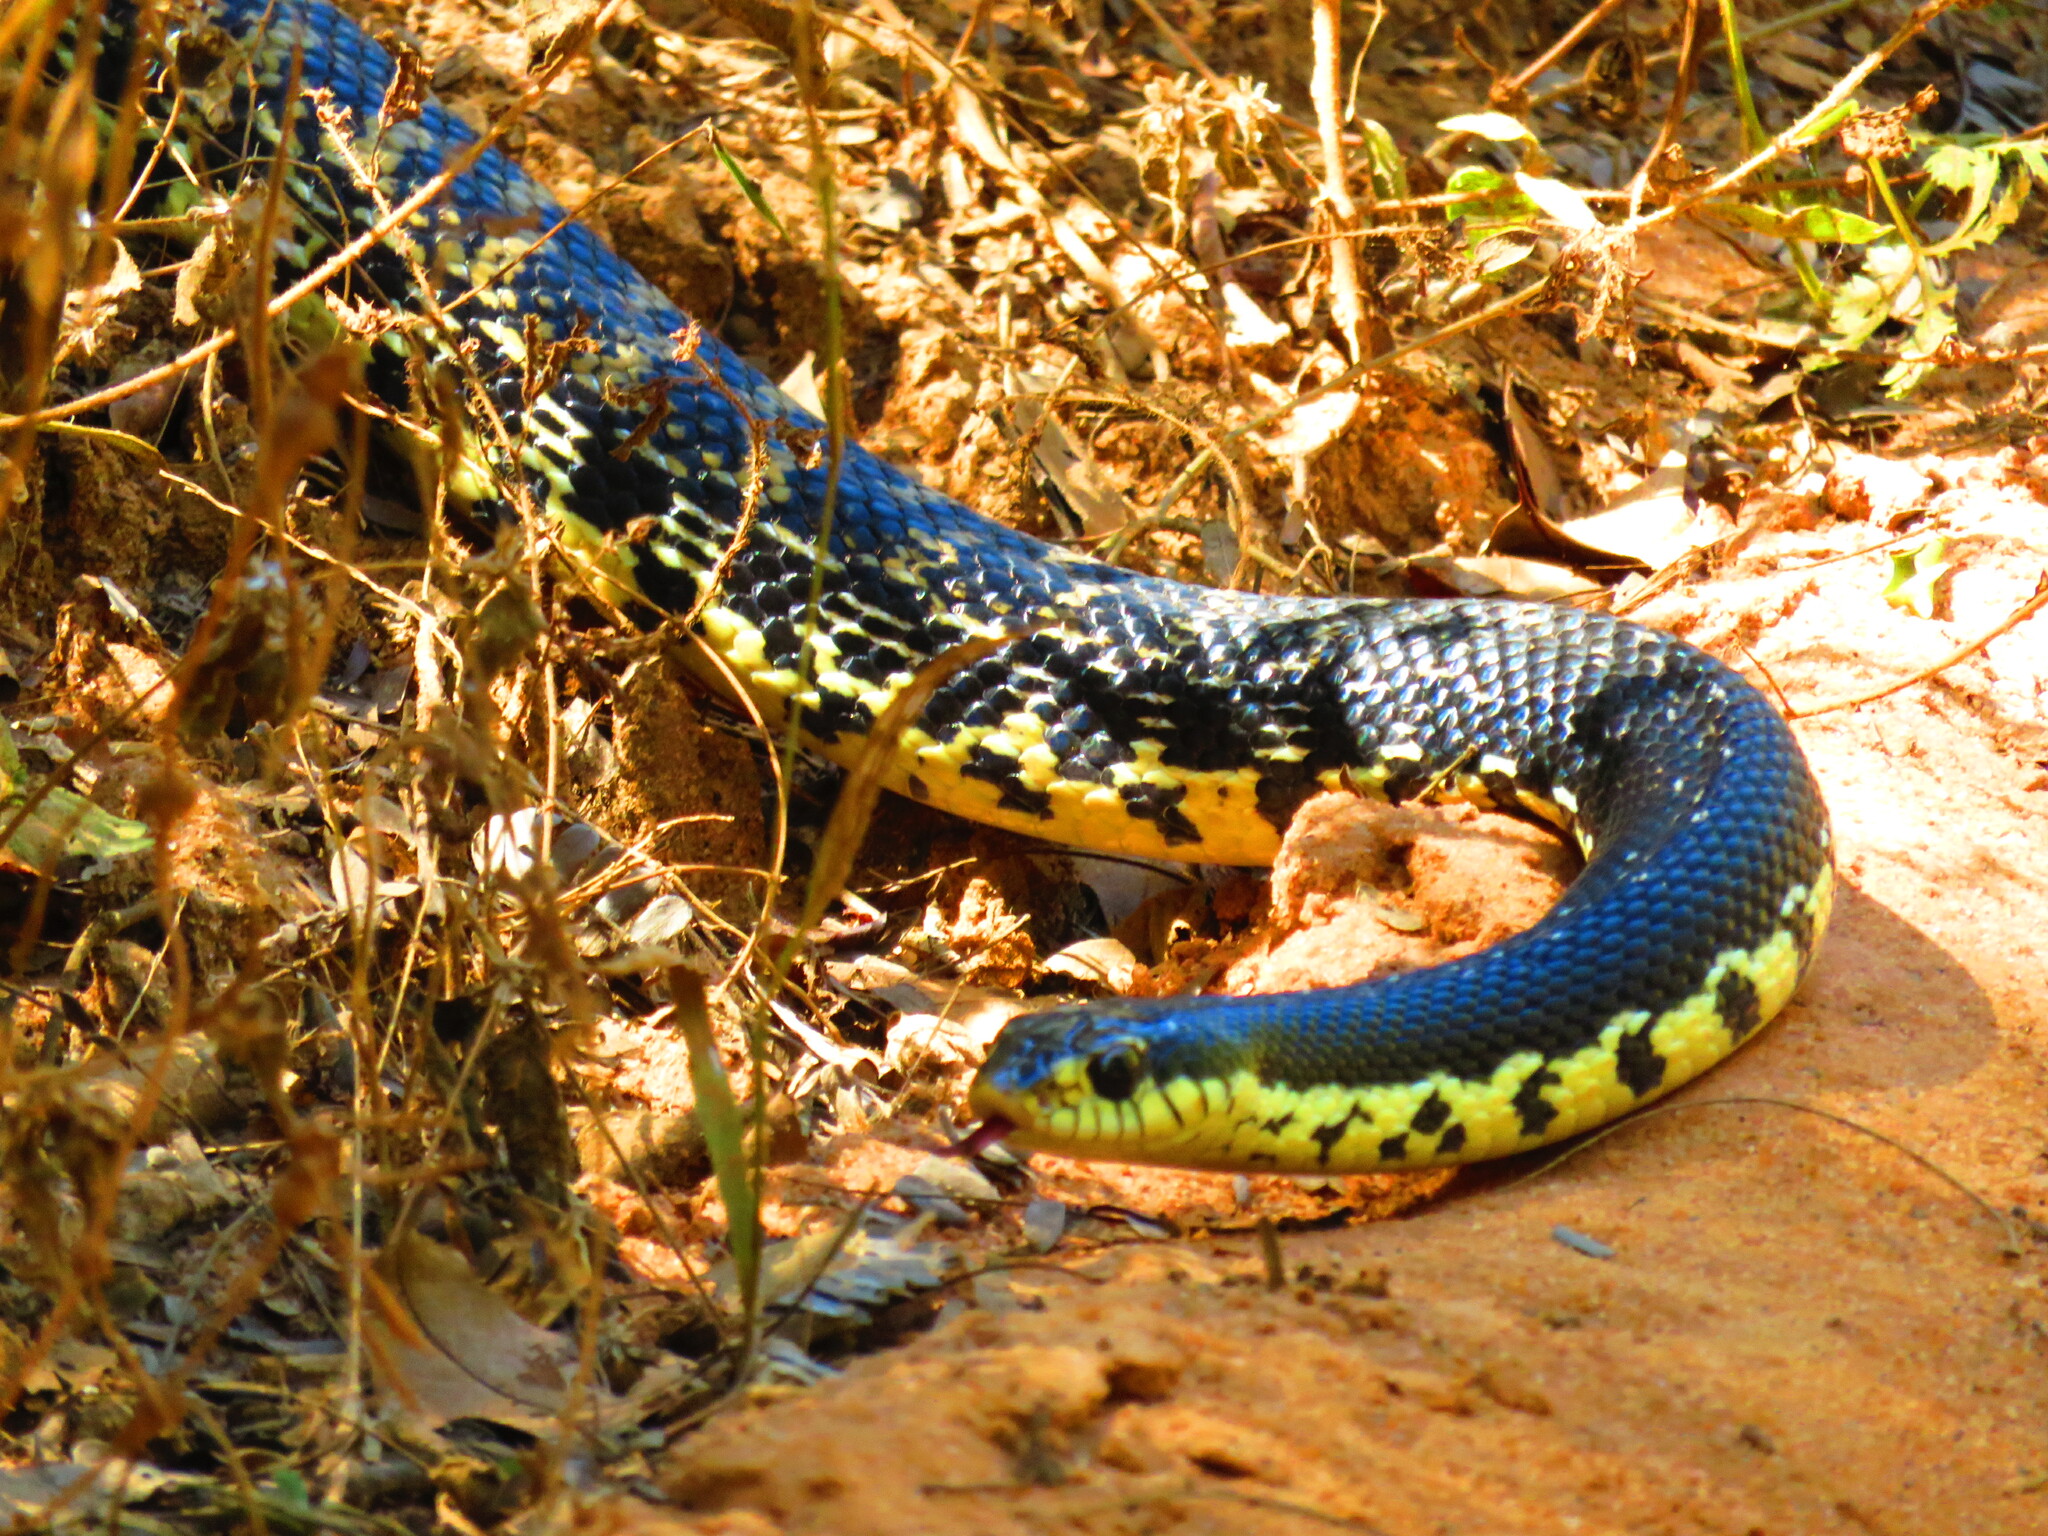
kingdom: Animalia
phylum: Chordata
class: Squamata
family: Pseudoxyrhophiidae
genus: Leioheterodon
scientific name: Leioheterodon madagascariensis
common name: Malagasy giant hognose snake
